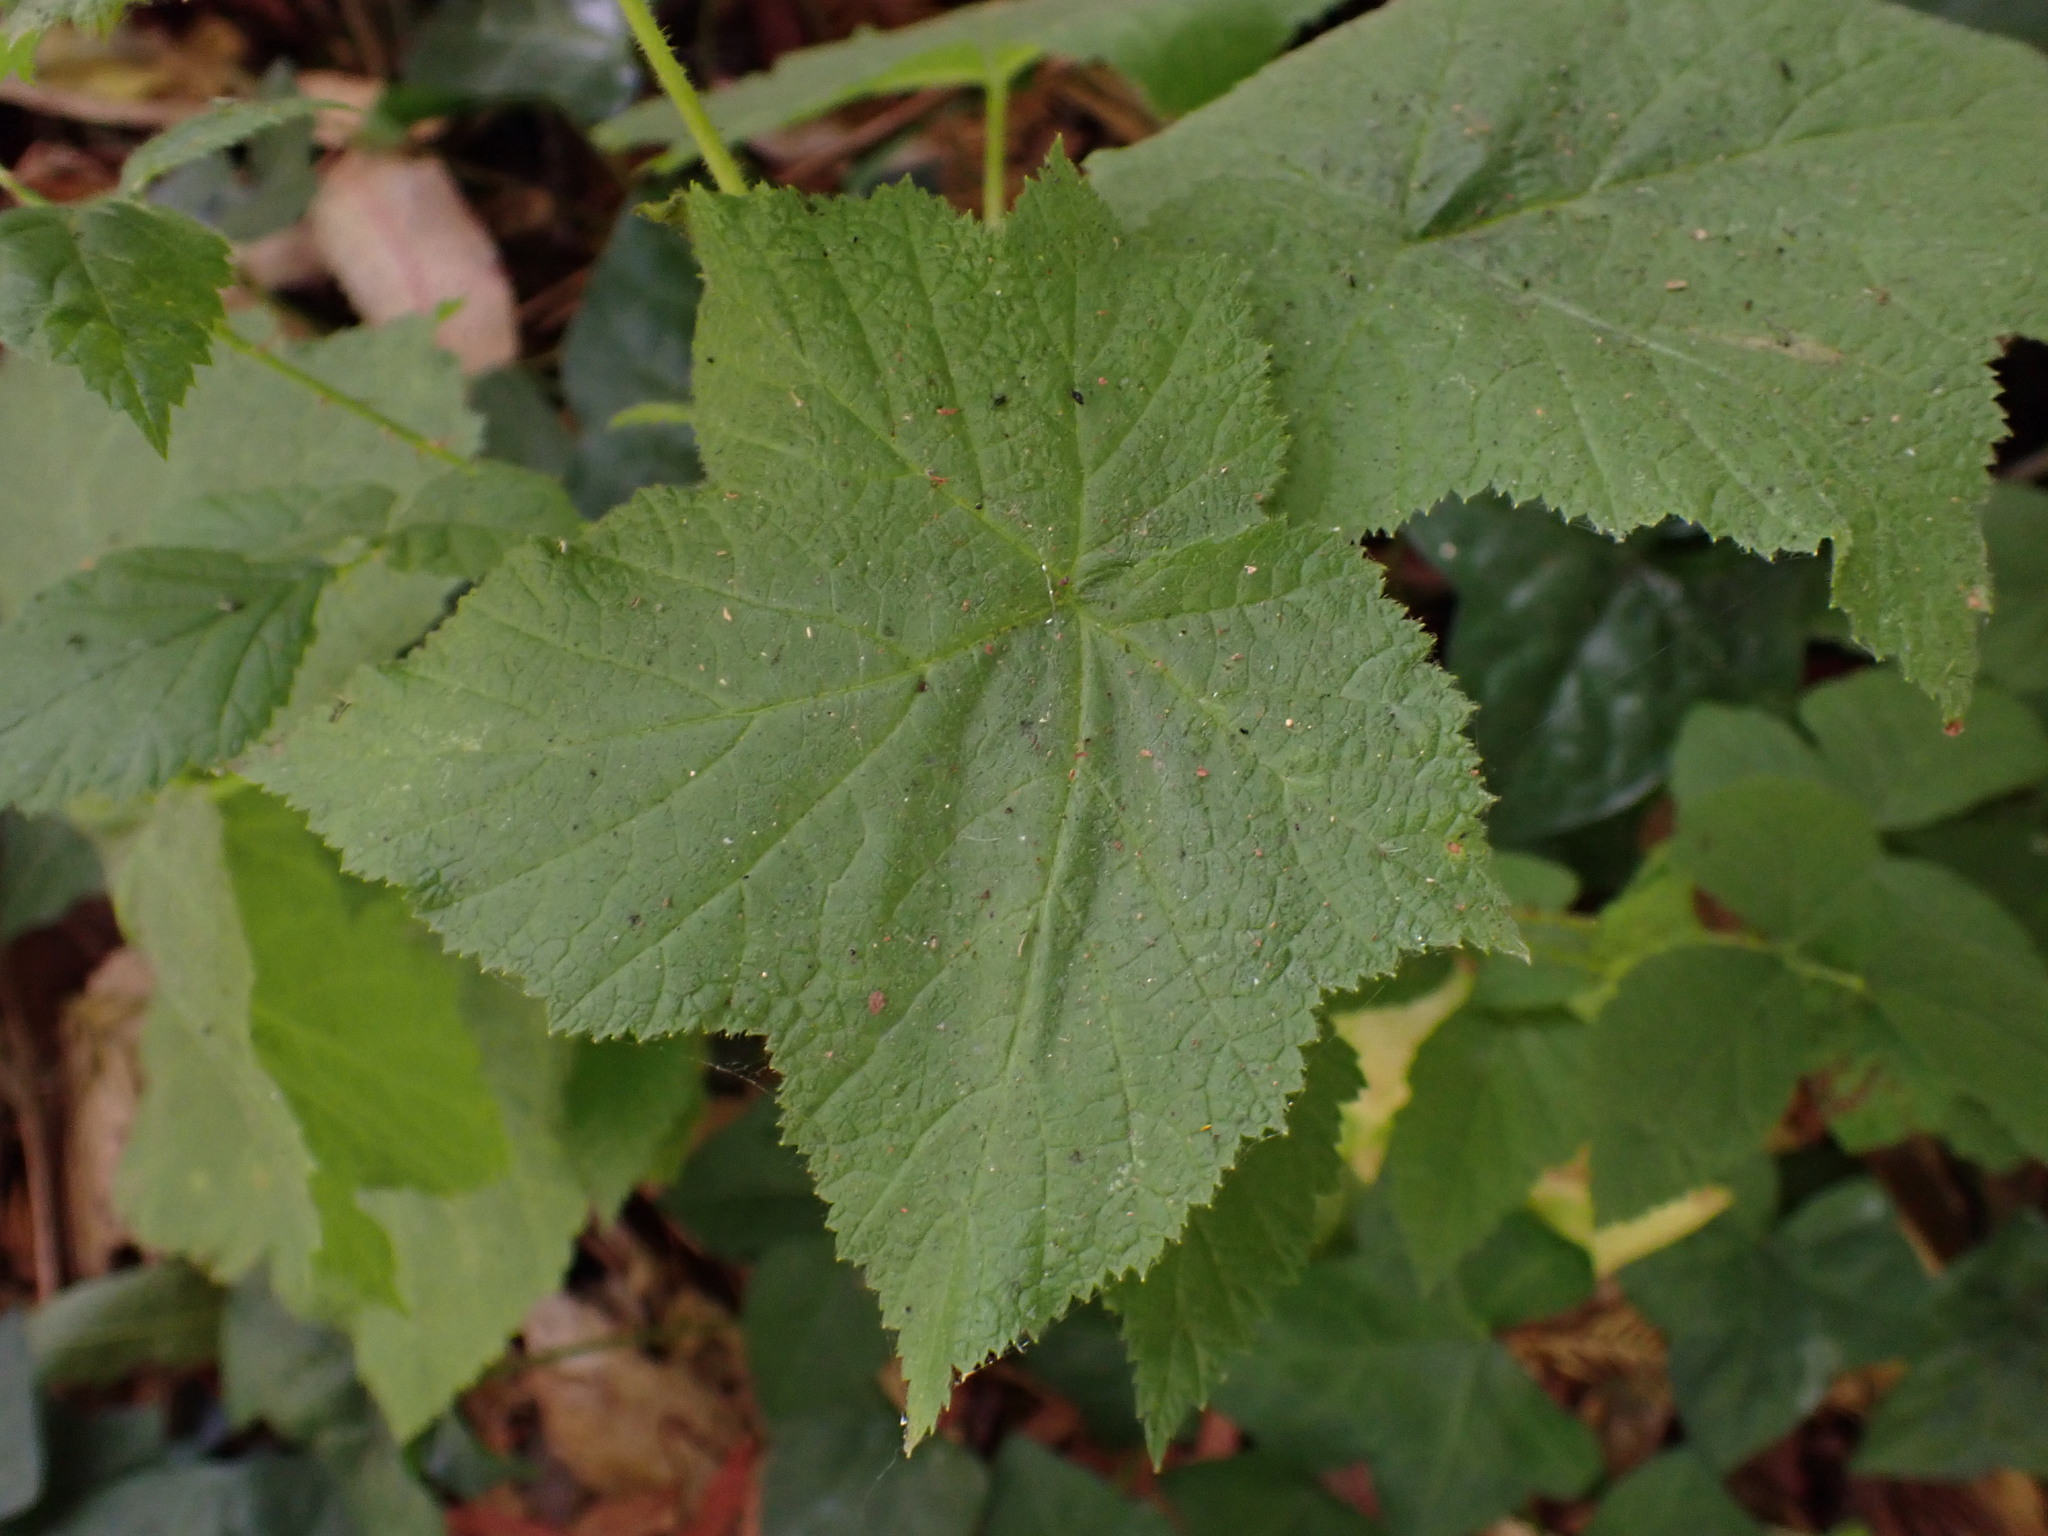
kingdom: Animalia
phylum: Arthropoda
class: Insecta
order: Hymenoptera
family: Cynipidae
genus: Diastrophus
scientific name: Diastrophus
